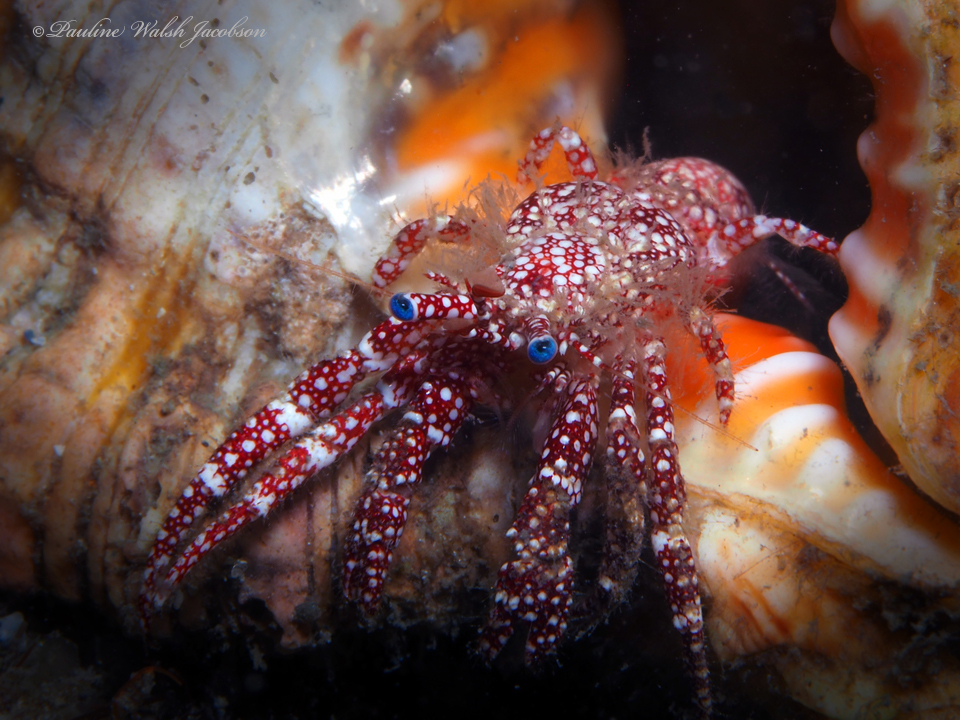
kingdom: Animalia
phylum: Arthropoda
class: Malacostraca
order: Decapoda
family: Diogenidae
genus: Paguristes
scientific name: Paguristes puncticeps
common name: White speckled hermit
